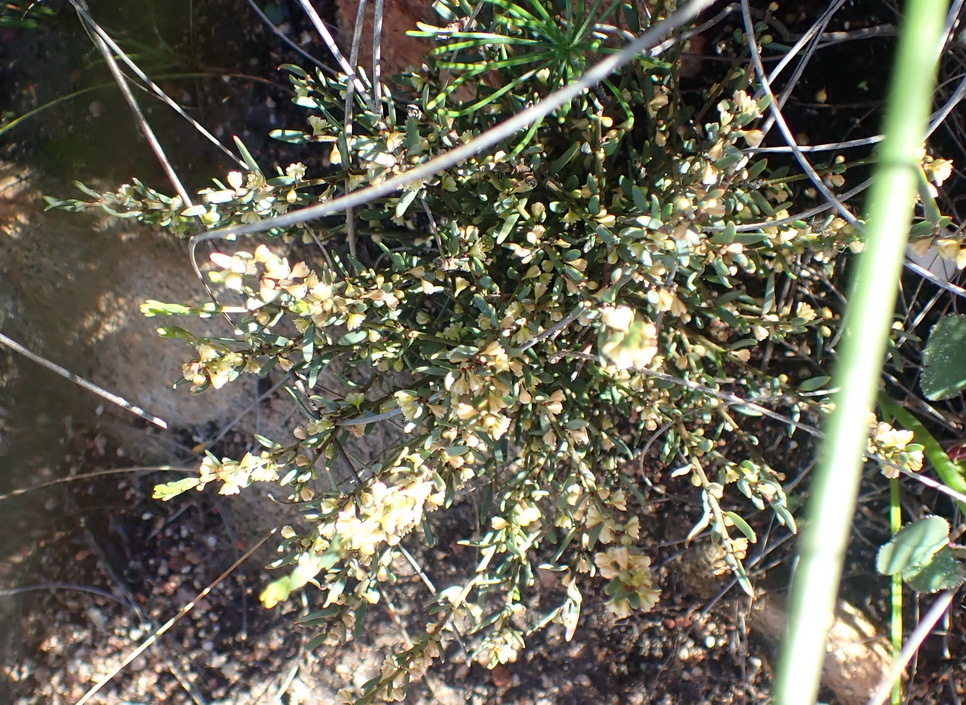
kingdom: Plantae
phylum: Tracheophyta
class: Magnoliopsida
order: Malpighiales
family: Peraceae
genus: Clutia
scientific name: Clutia ericoides
